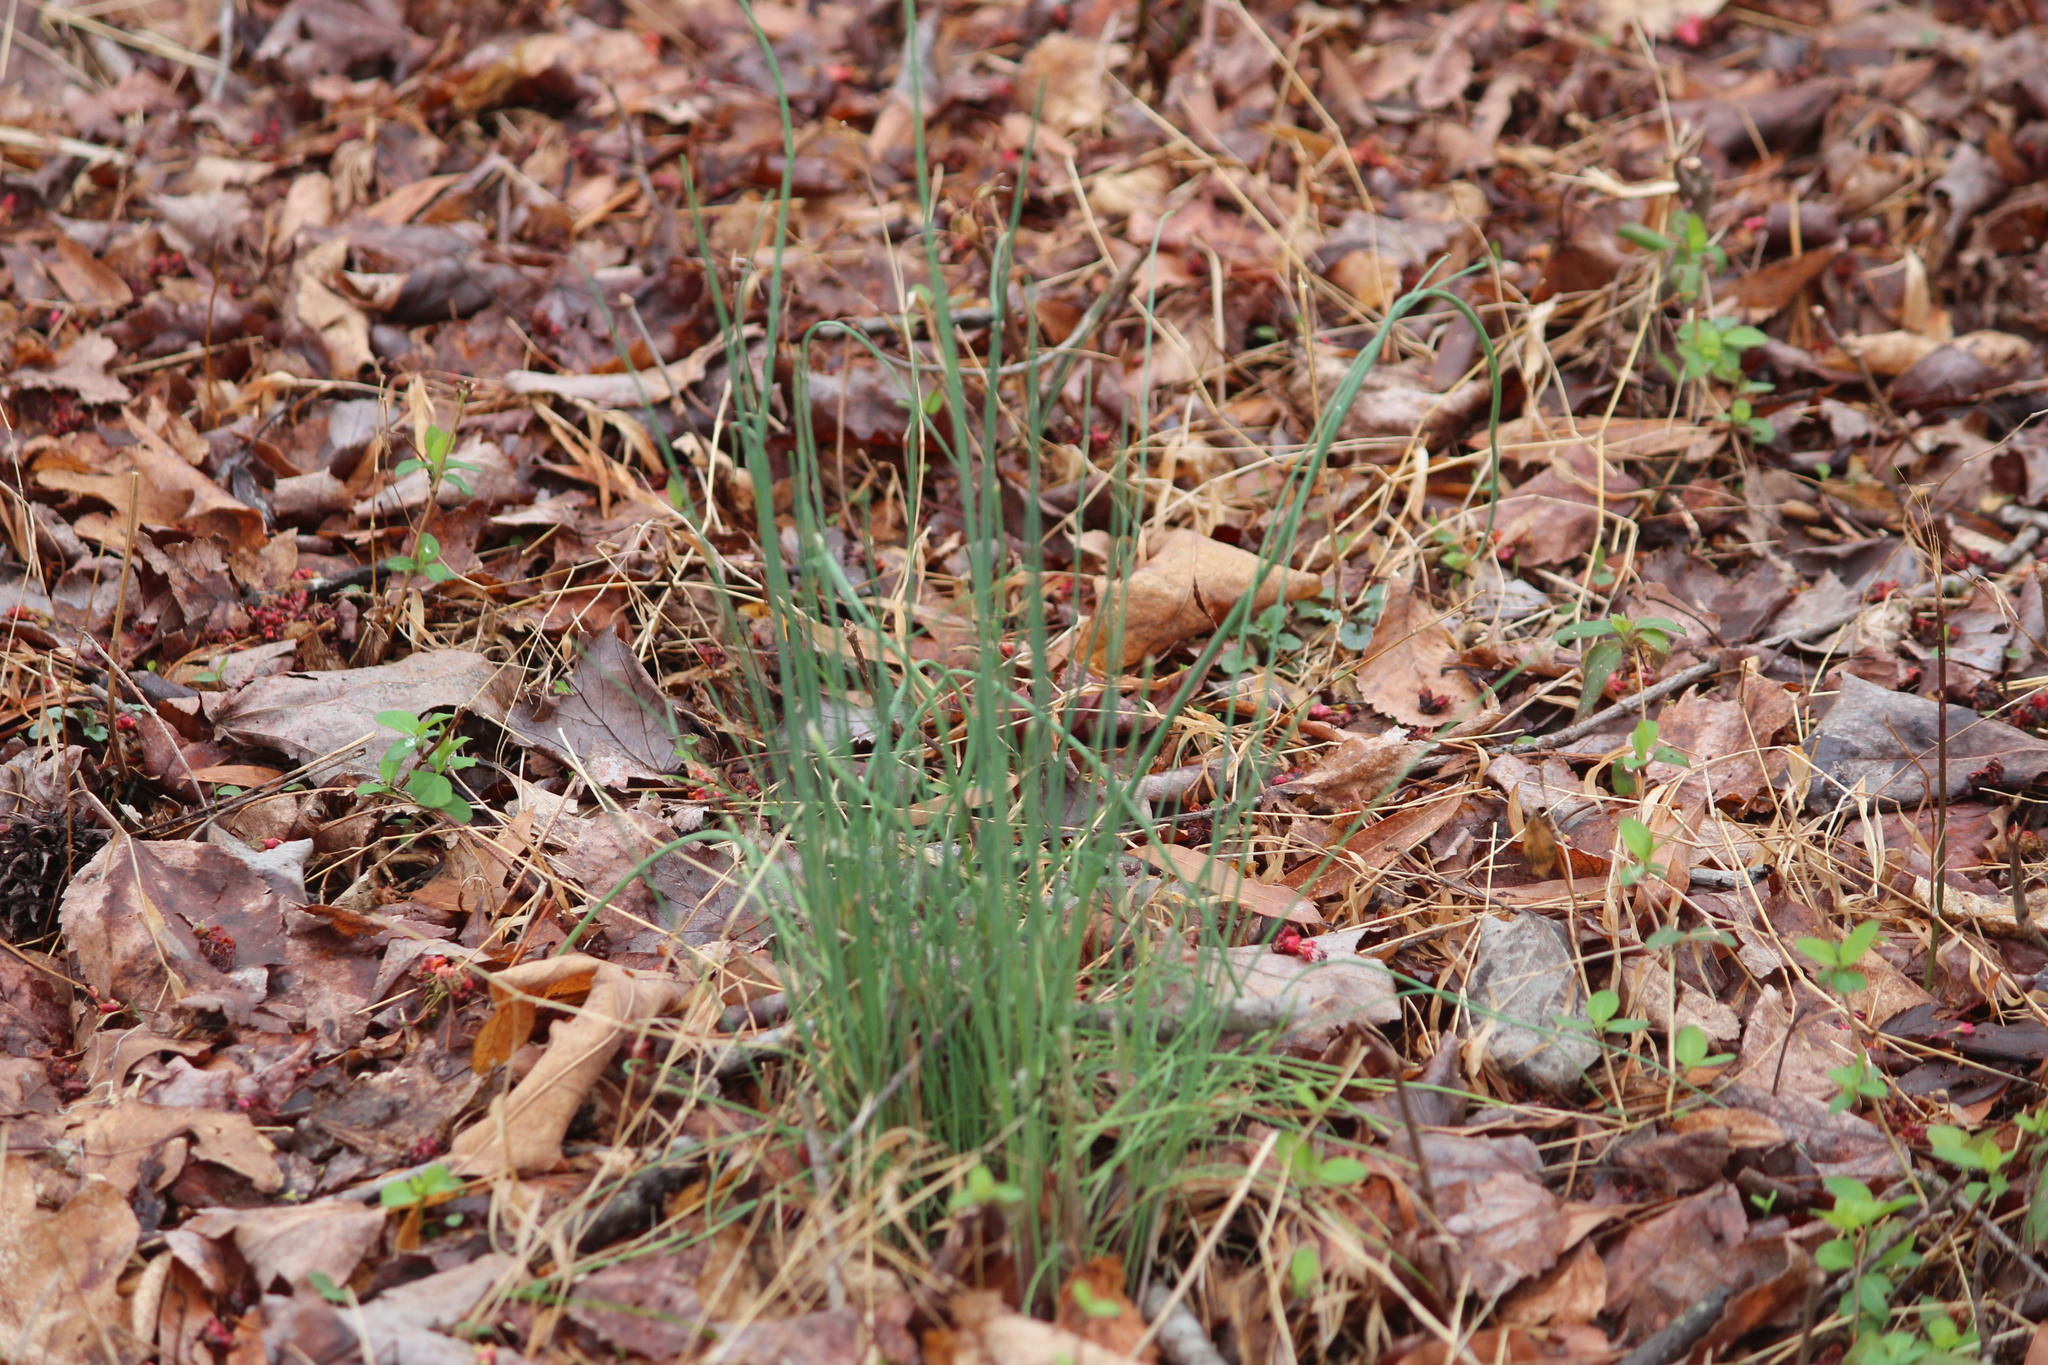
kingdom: Plantae
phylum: Tracheophyta
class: Liliopsida
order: Asparagales
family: Amaryllidaceae
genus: Allium
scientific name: Allium vineale
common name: Crow garlic
